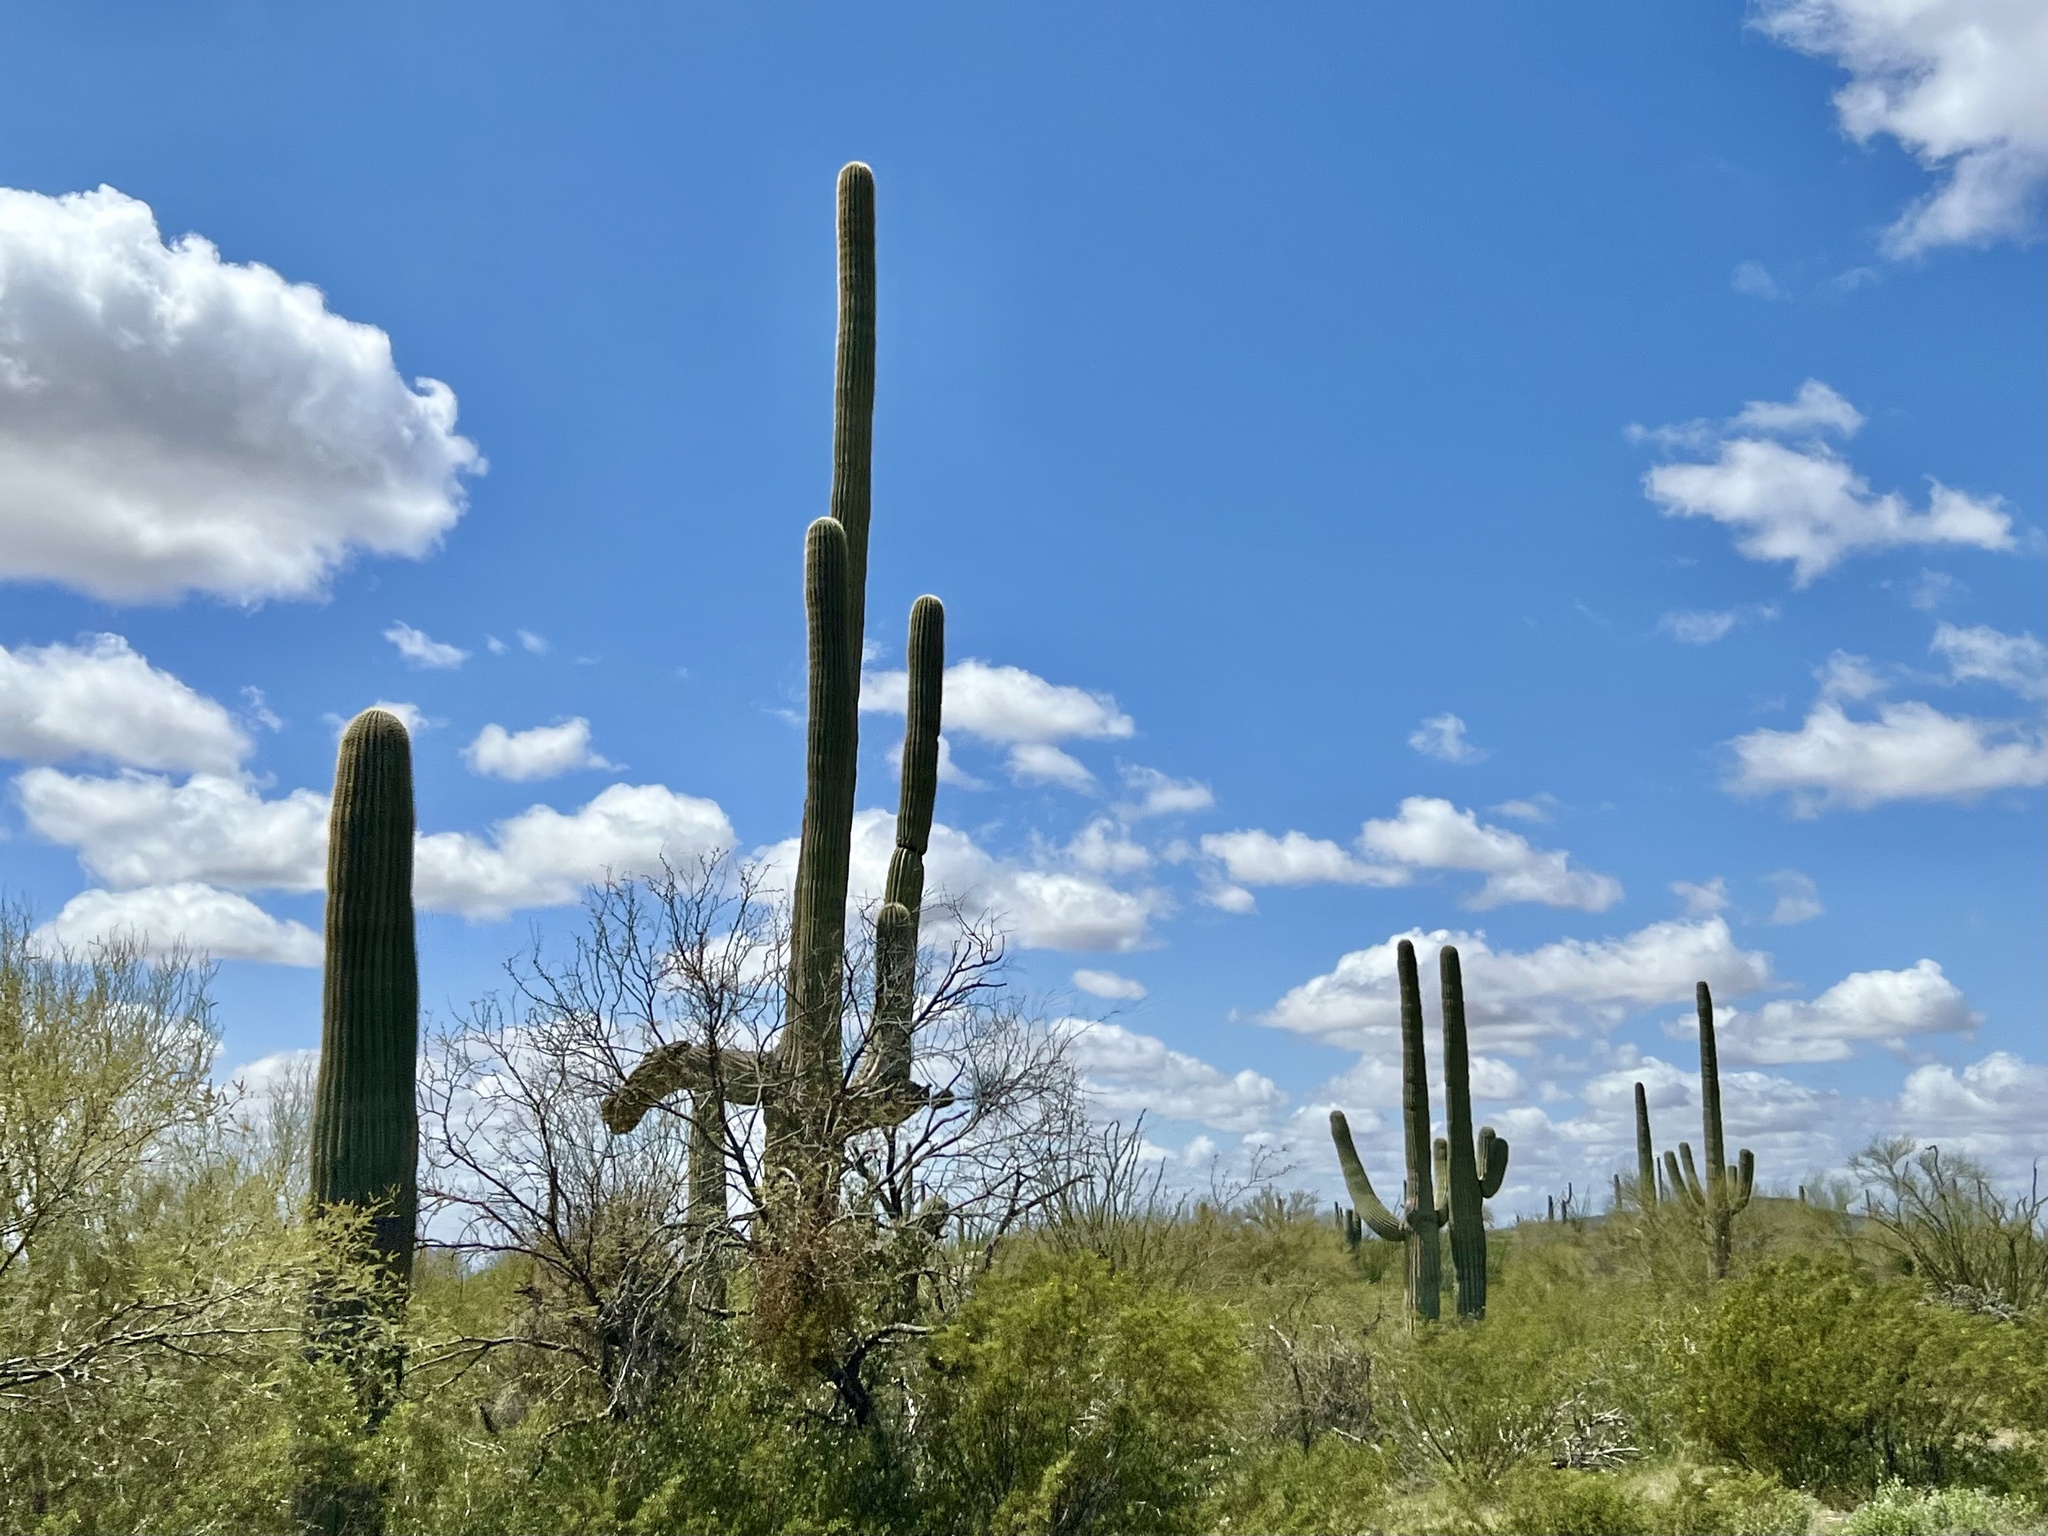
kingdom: Plantae
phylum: Tracheophyta
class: Magnoliopsida
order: Caryophyllales
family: Cactaceae
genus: Carnegiea
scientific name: Carnegiea gigantea
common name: Saguaro
